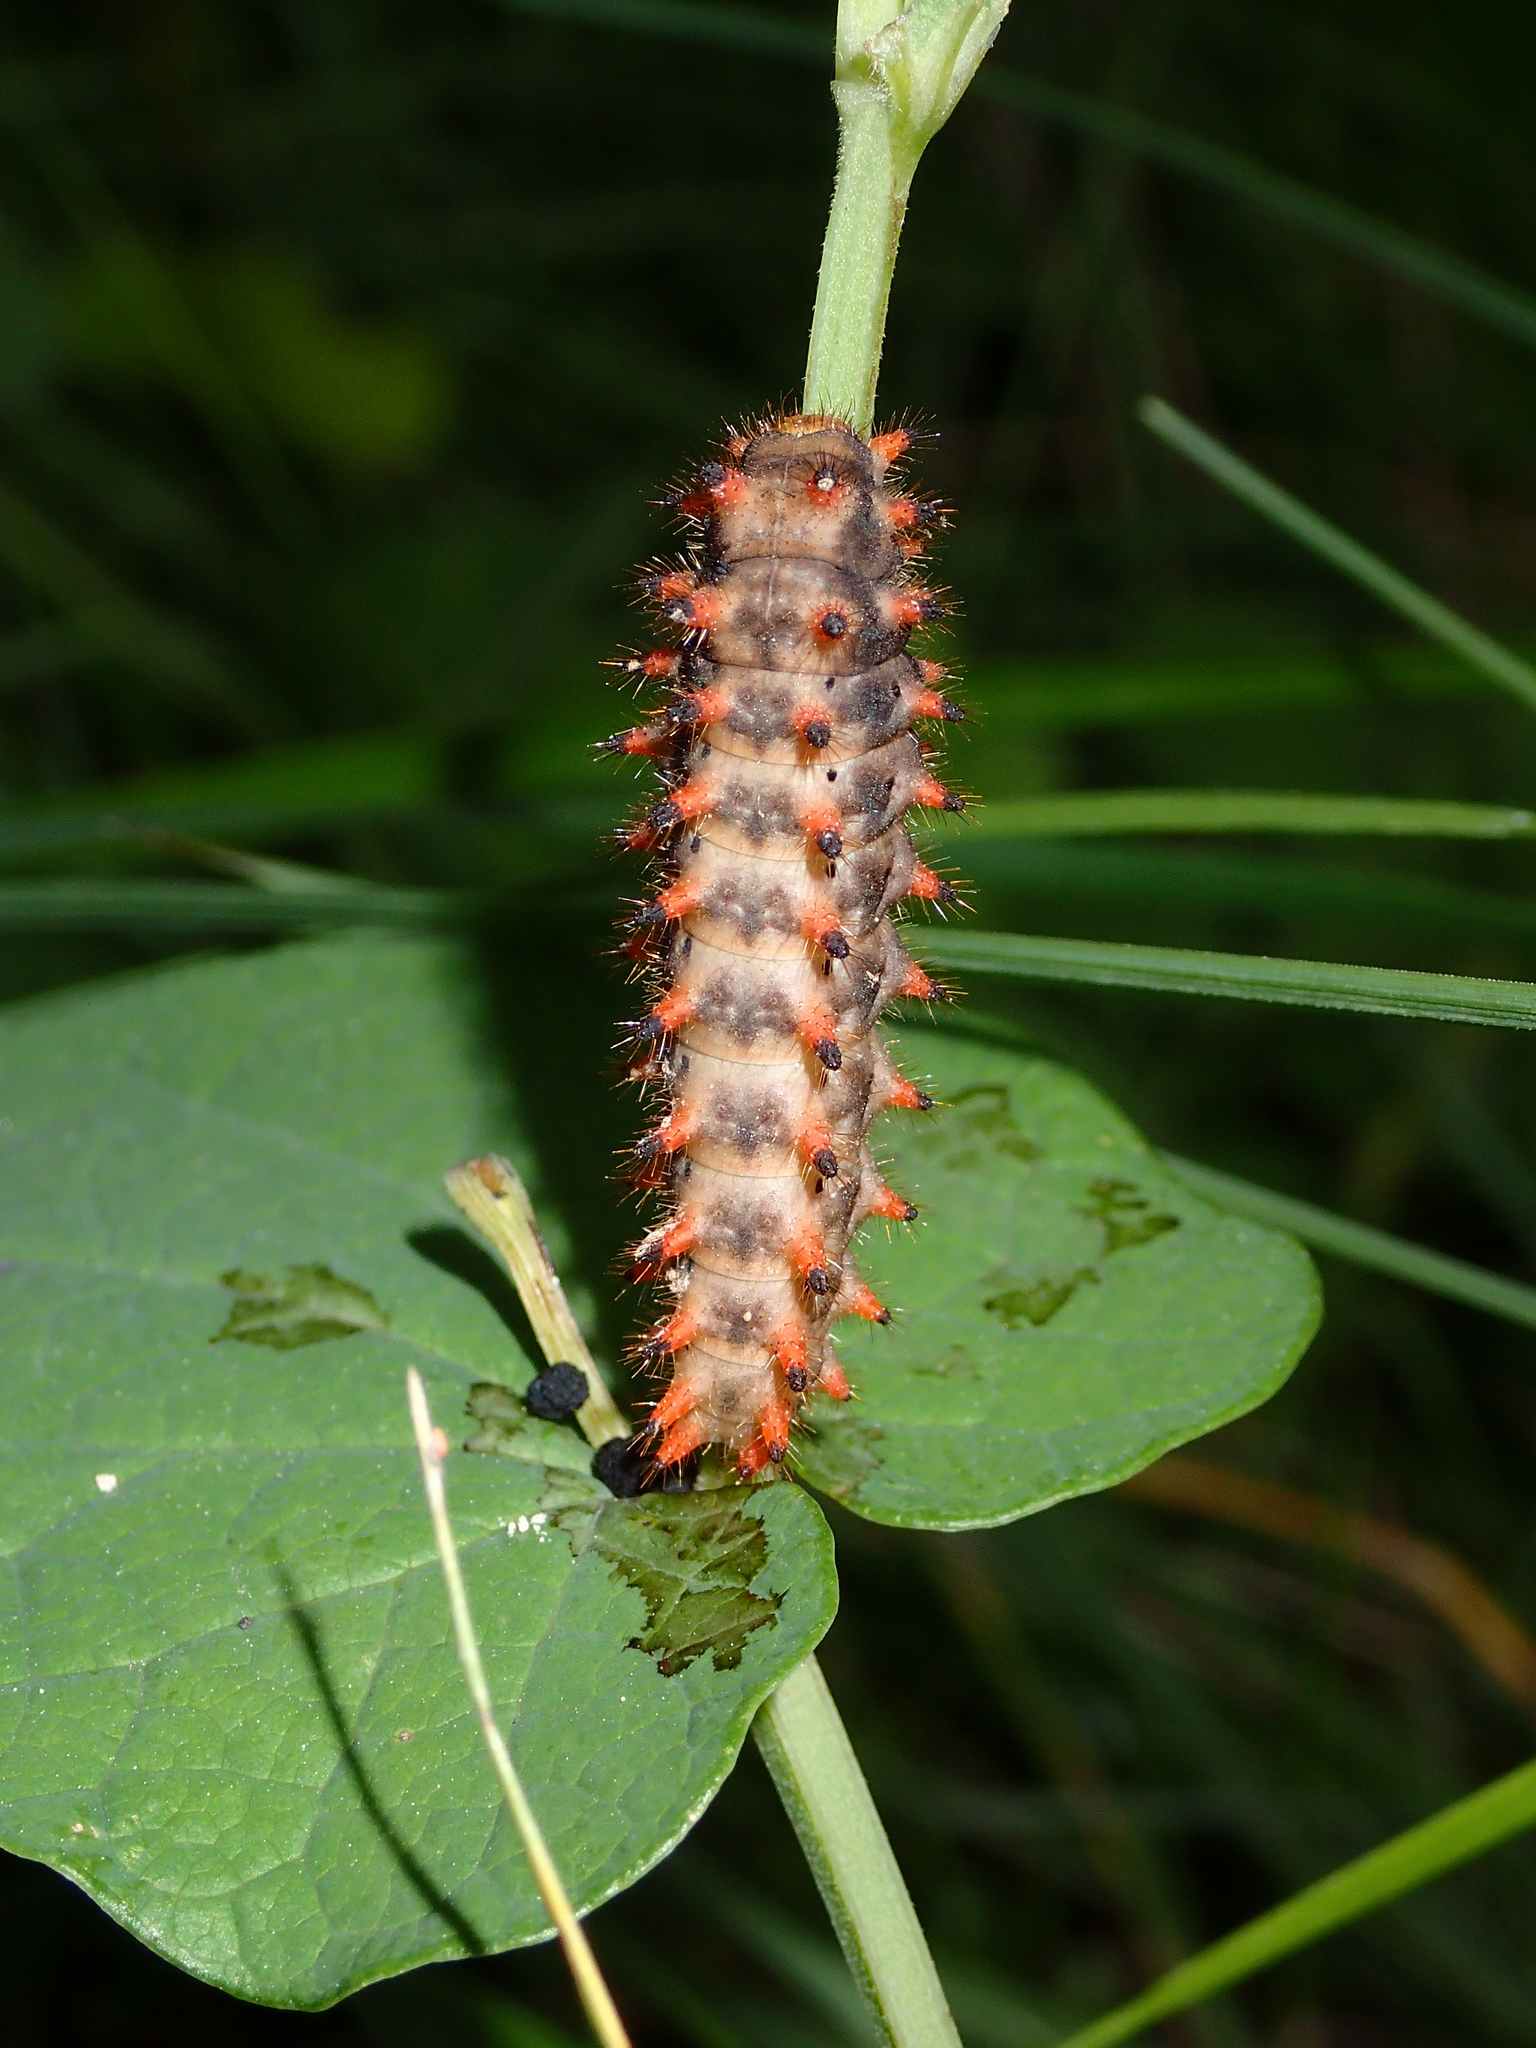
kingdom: Animalia
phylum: Arthropoda
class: Insecta
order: Lepidoptera
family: Papilionidae
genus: Zerynthia
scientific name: Zerynthia polyxena
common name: Southern festoon
